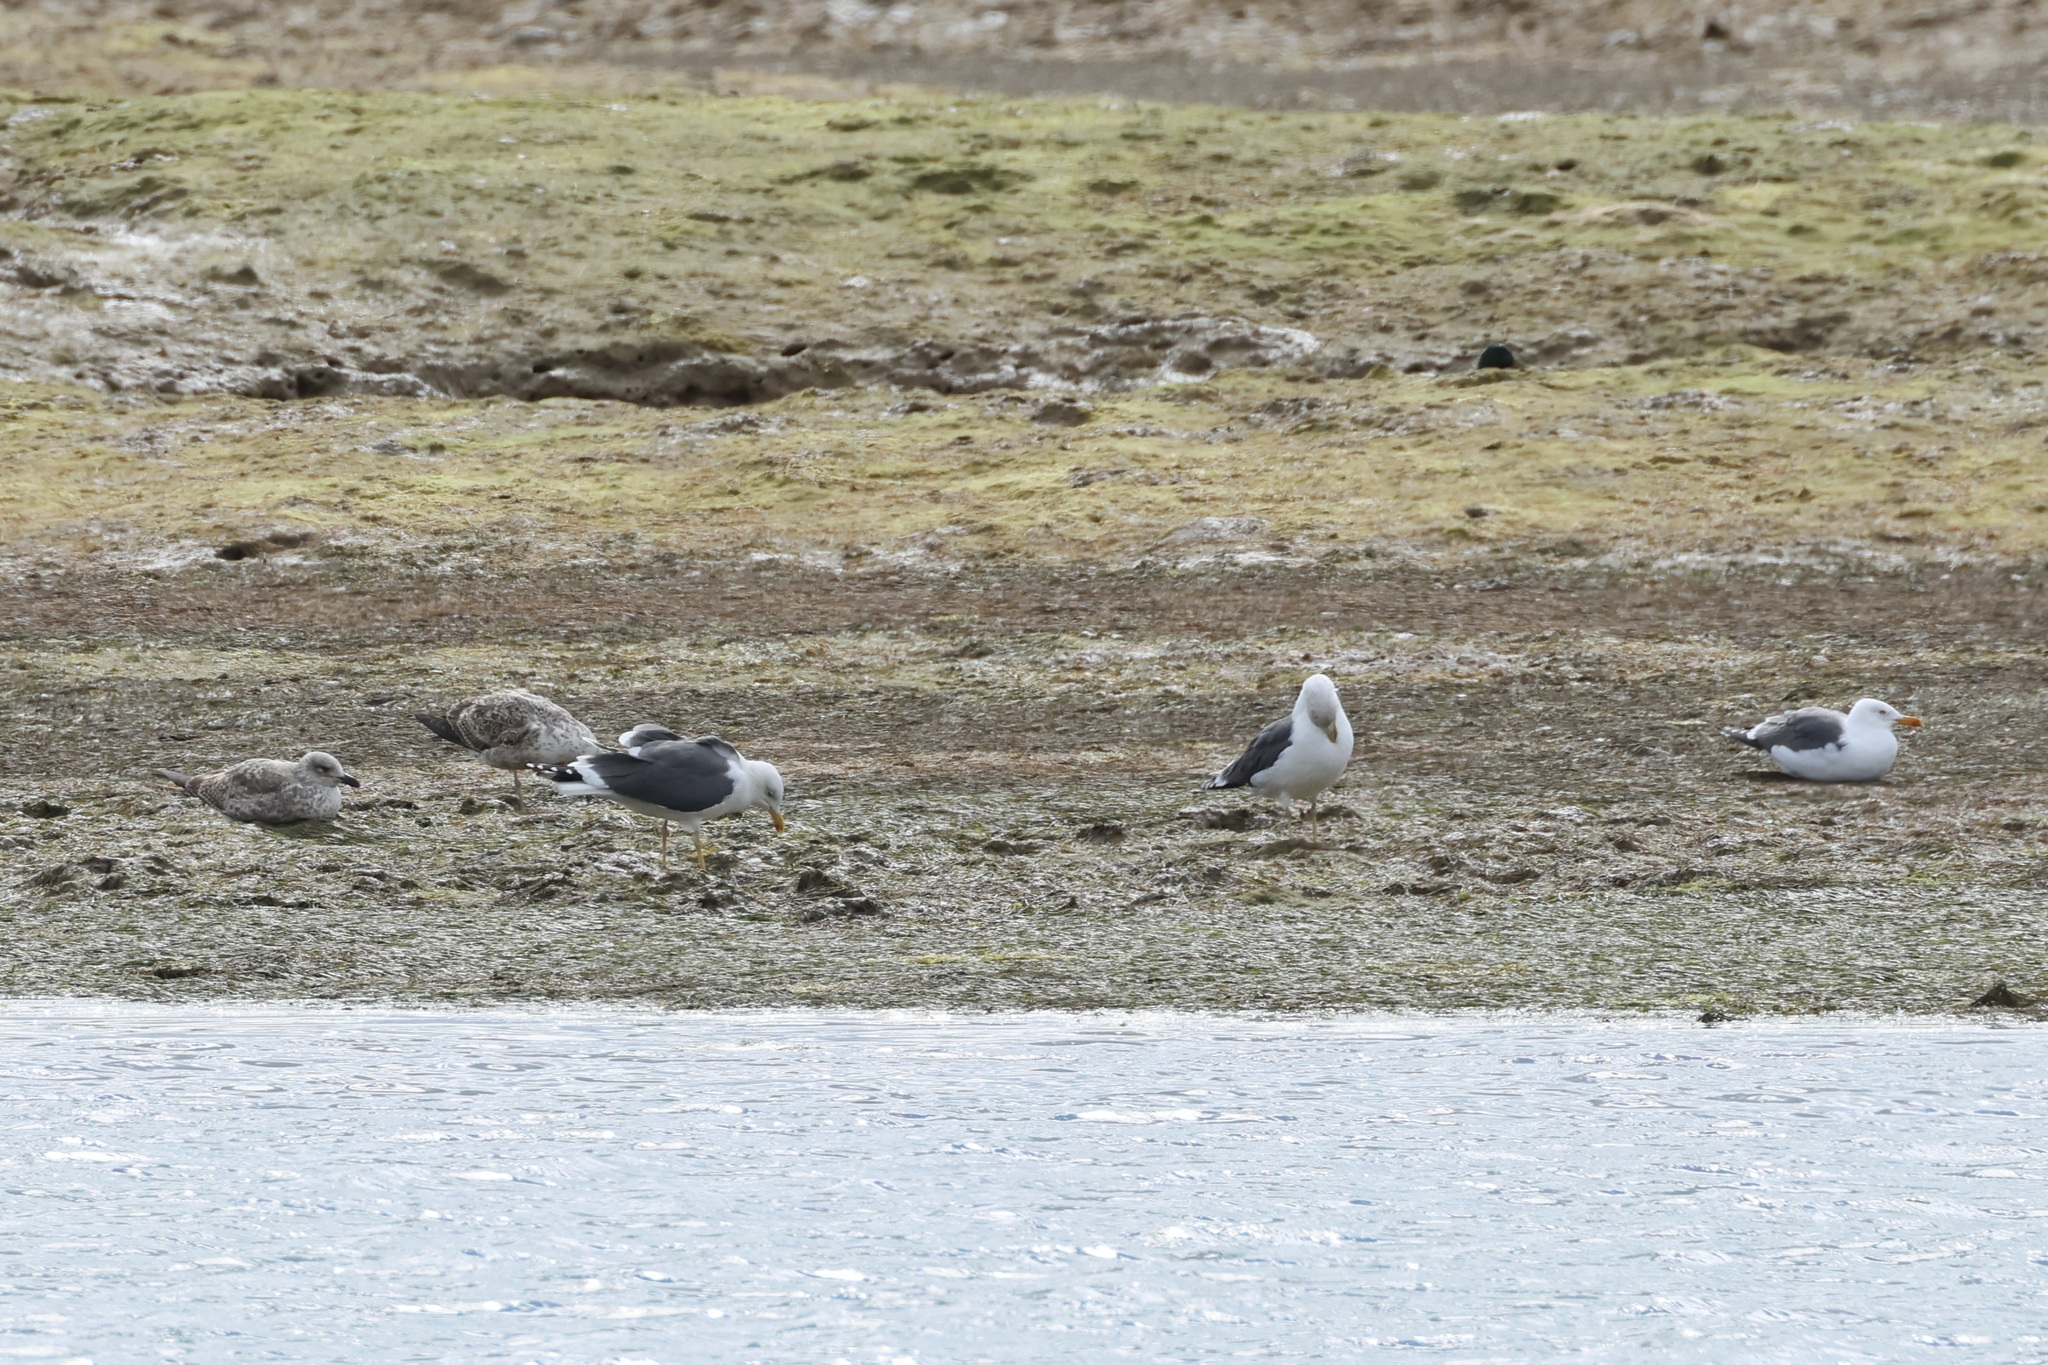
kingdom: Animalia
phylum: Chordata
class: Aves
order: Charadriiformes
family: Laridae
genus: Larus
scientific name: Larus fuscus
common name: Lesser black-backed gull
